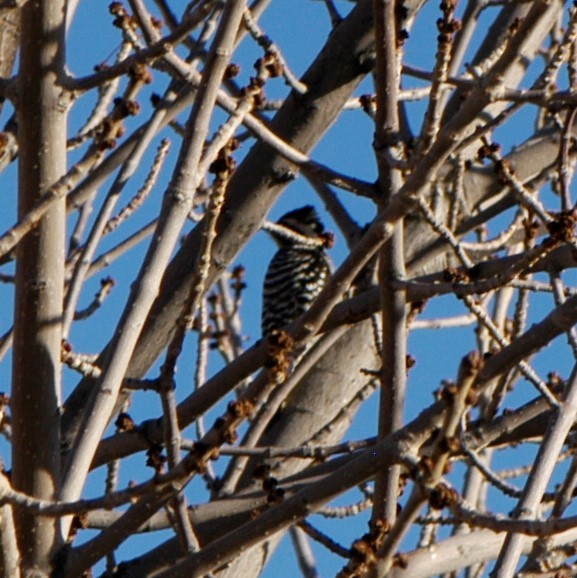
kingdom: Animalia
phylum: Chordata
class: Aves
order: Piciformes
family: Picidae
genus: Dryobates
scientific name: Dryobates scalaris
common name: Ladder-backed woodpecker
